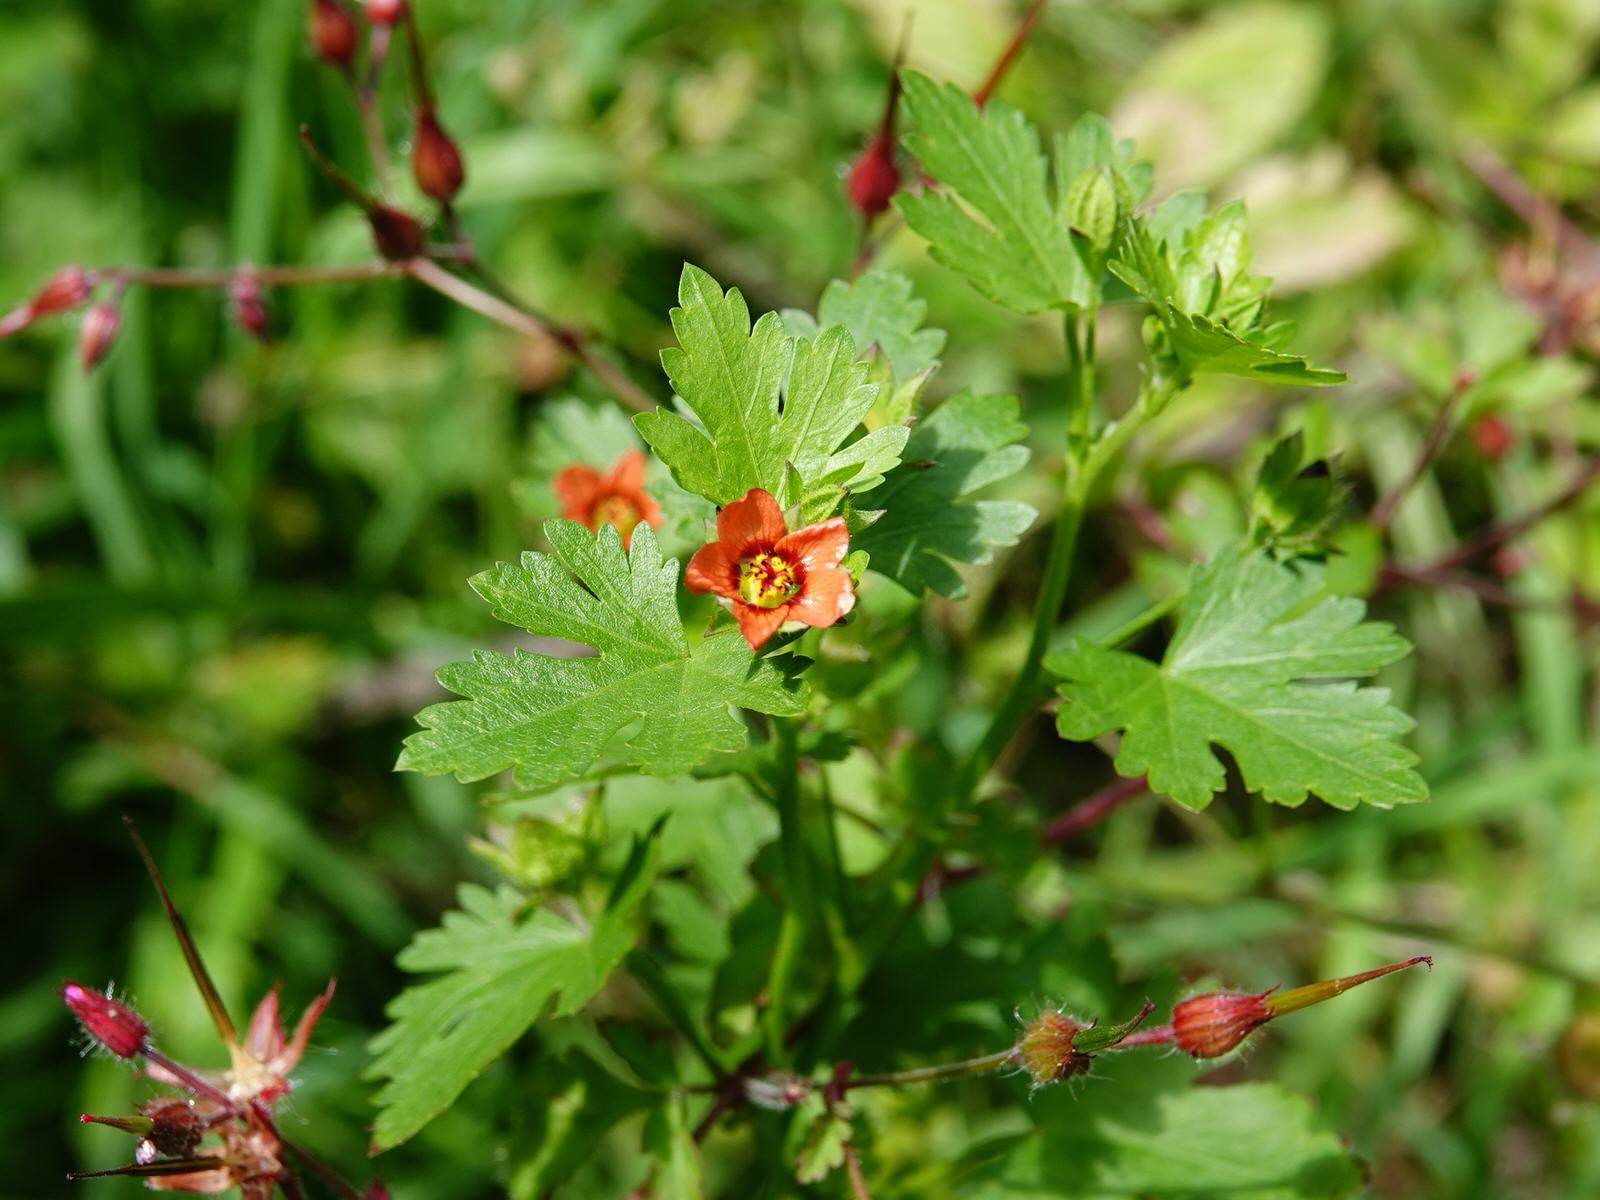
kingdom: Plantae
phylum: Tracheophyta
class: Magnoliopsida
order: Malvales
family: Malvaceae
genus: Modiola
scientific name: Modiola caroliniana
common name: Carolina bristlemallow
